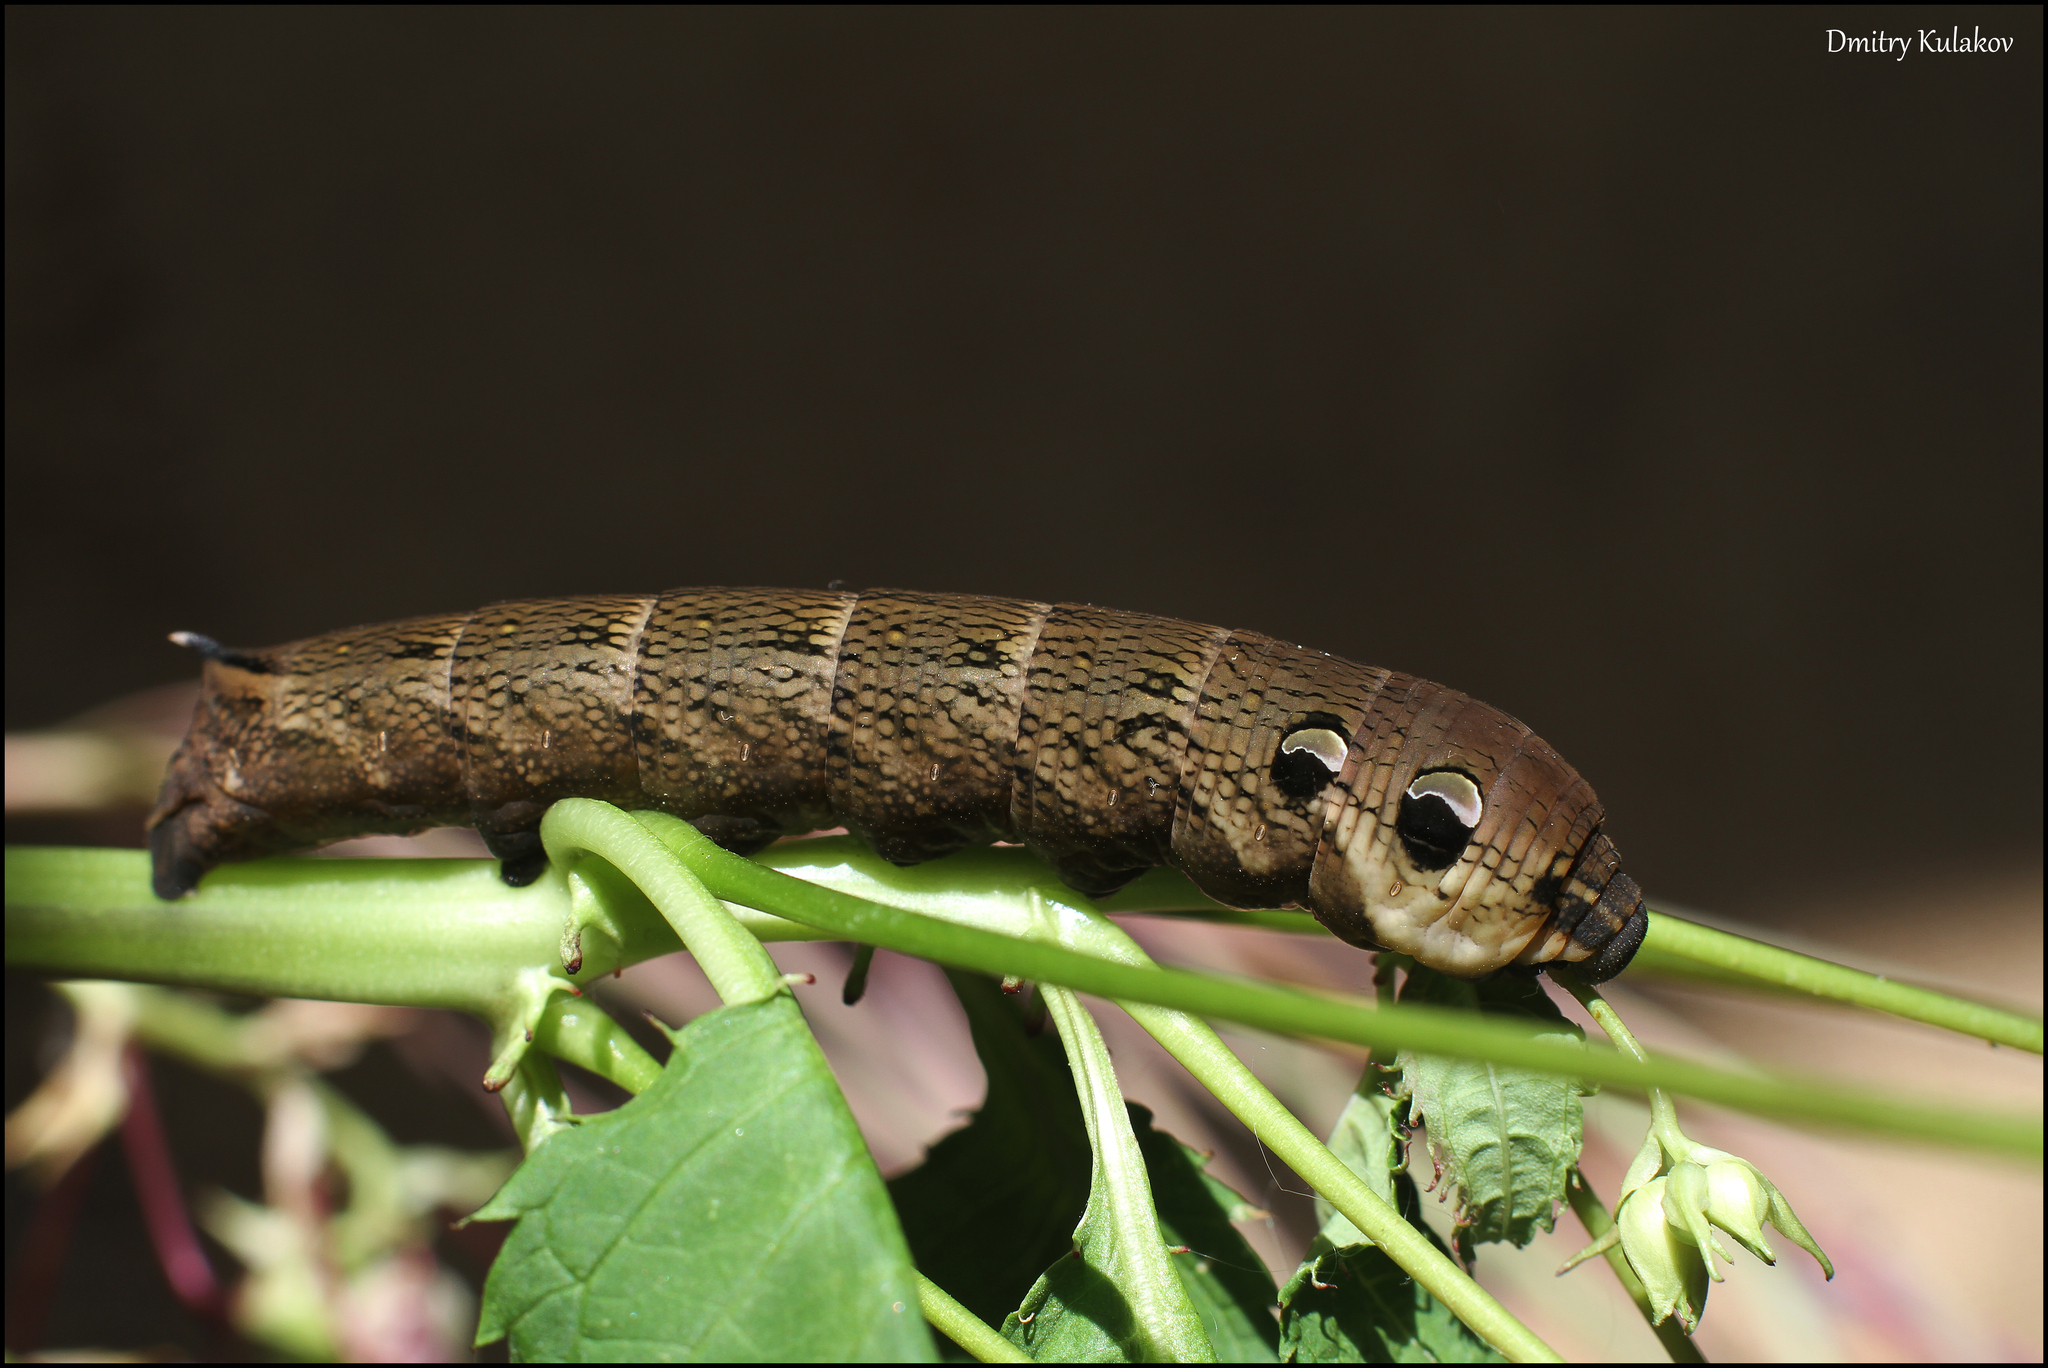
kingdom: Animalia
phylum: Arthropoda
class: Insecta
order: Lepidoptera
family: Sphingidae
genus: Deilephila
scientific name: Deilephila elpenor
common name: Elephant hawk-moth
